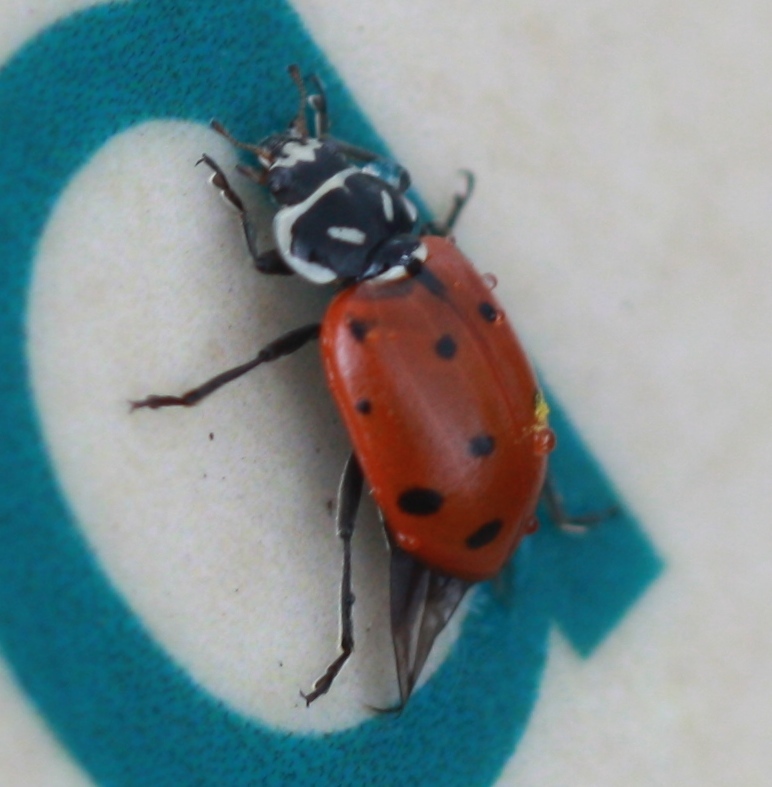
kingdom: Animalia
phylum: Arthropoda
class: Insecta
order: Coleoptera
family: Coccinellidae
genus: Hippodamia
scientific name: Hippodamia convergens
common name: Convergent lady beetle
